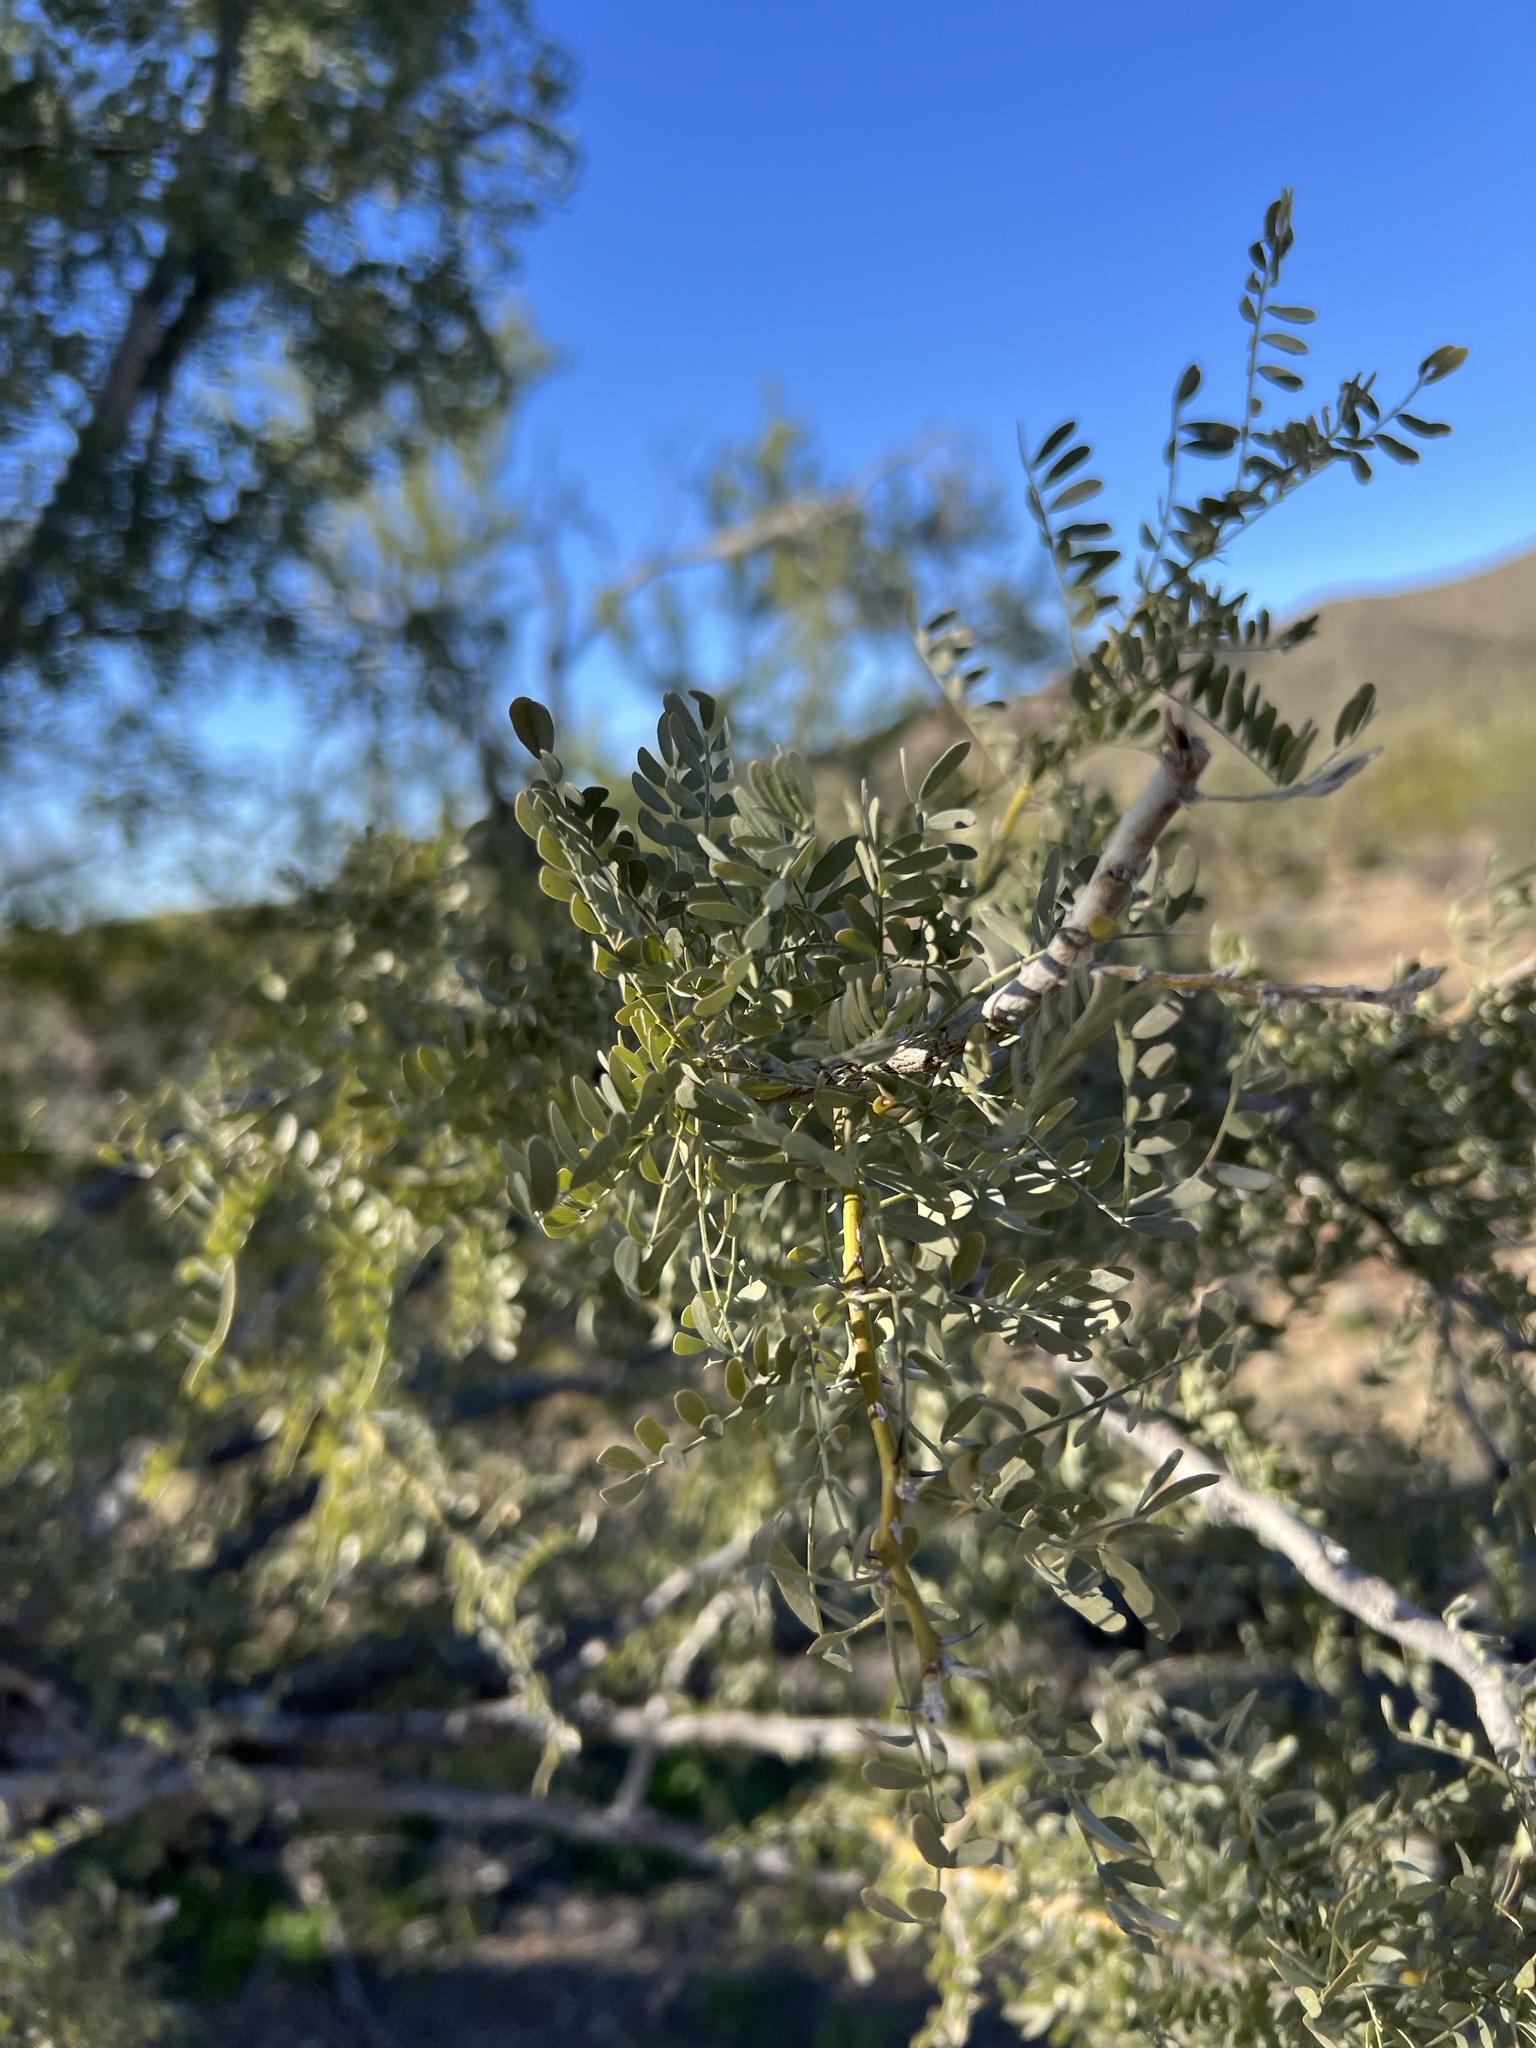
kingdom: Plantae
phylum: Tracheophyta
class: Magnoliopsida
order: Fabales
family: Fabaceae
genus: Olneya
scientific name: Olneya tesota
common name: Desert ironwood
